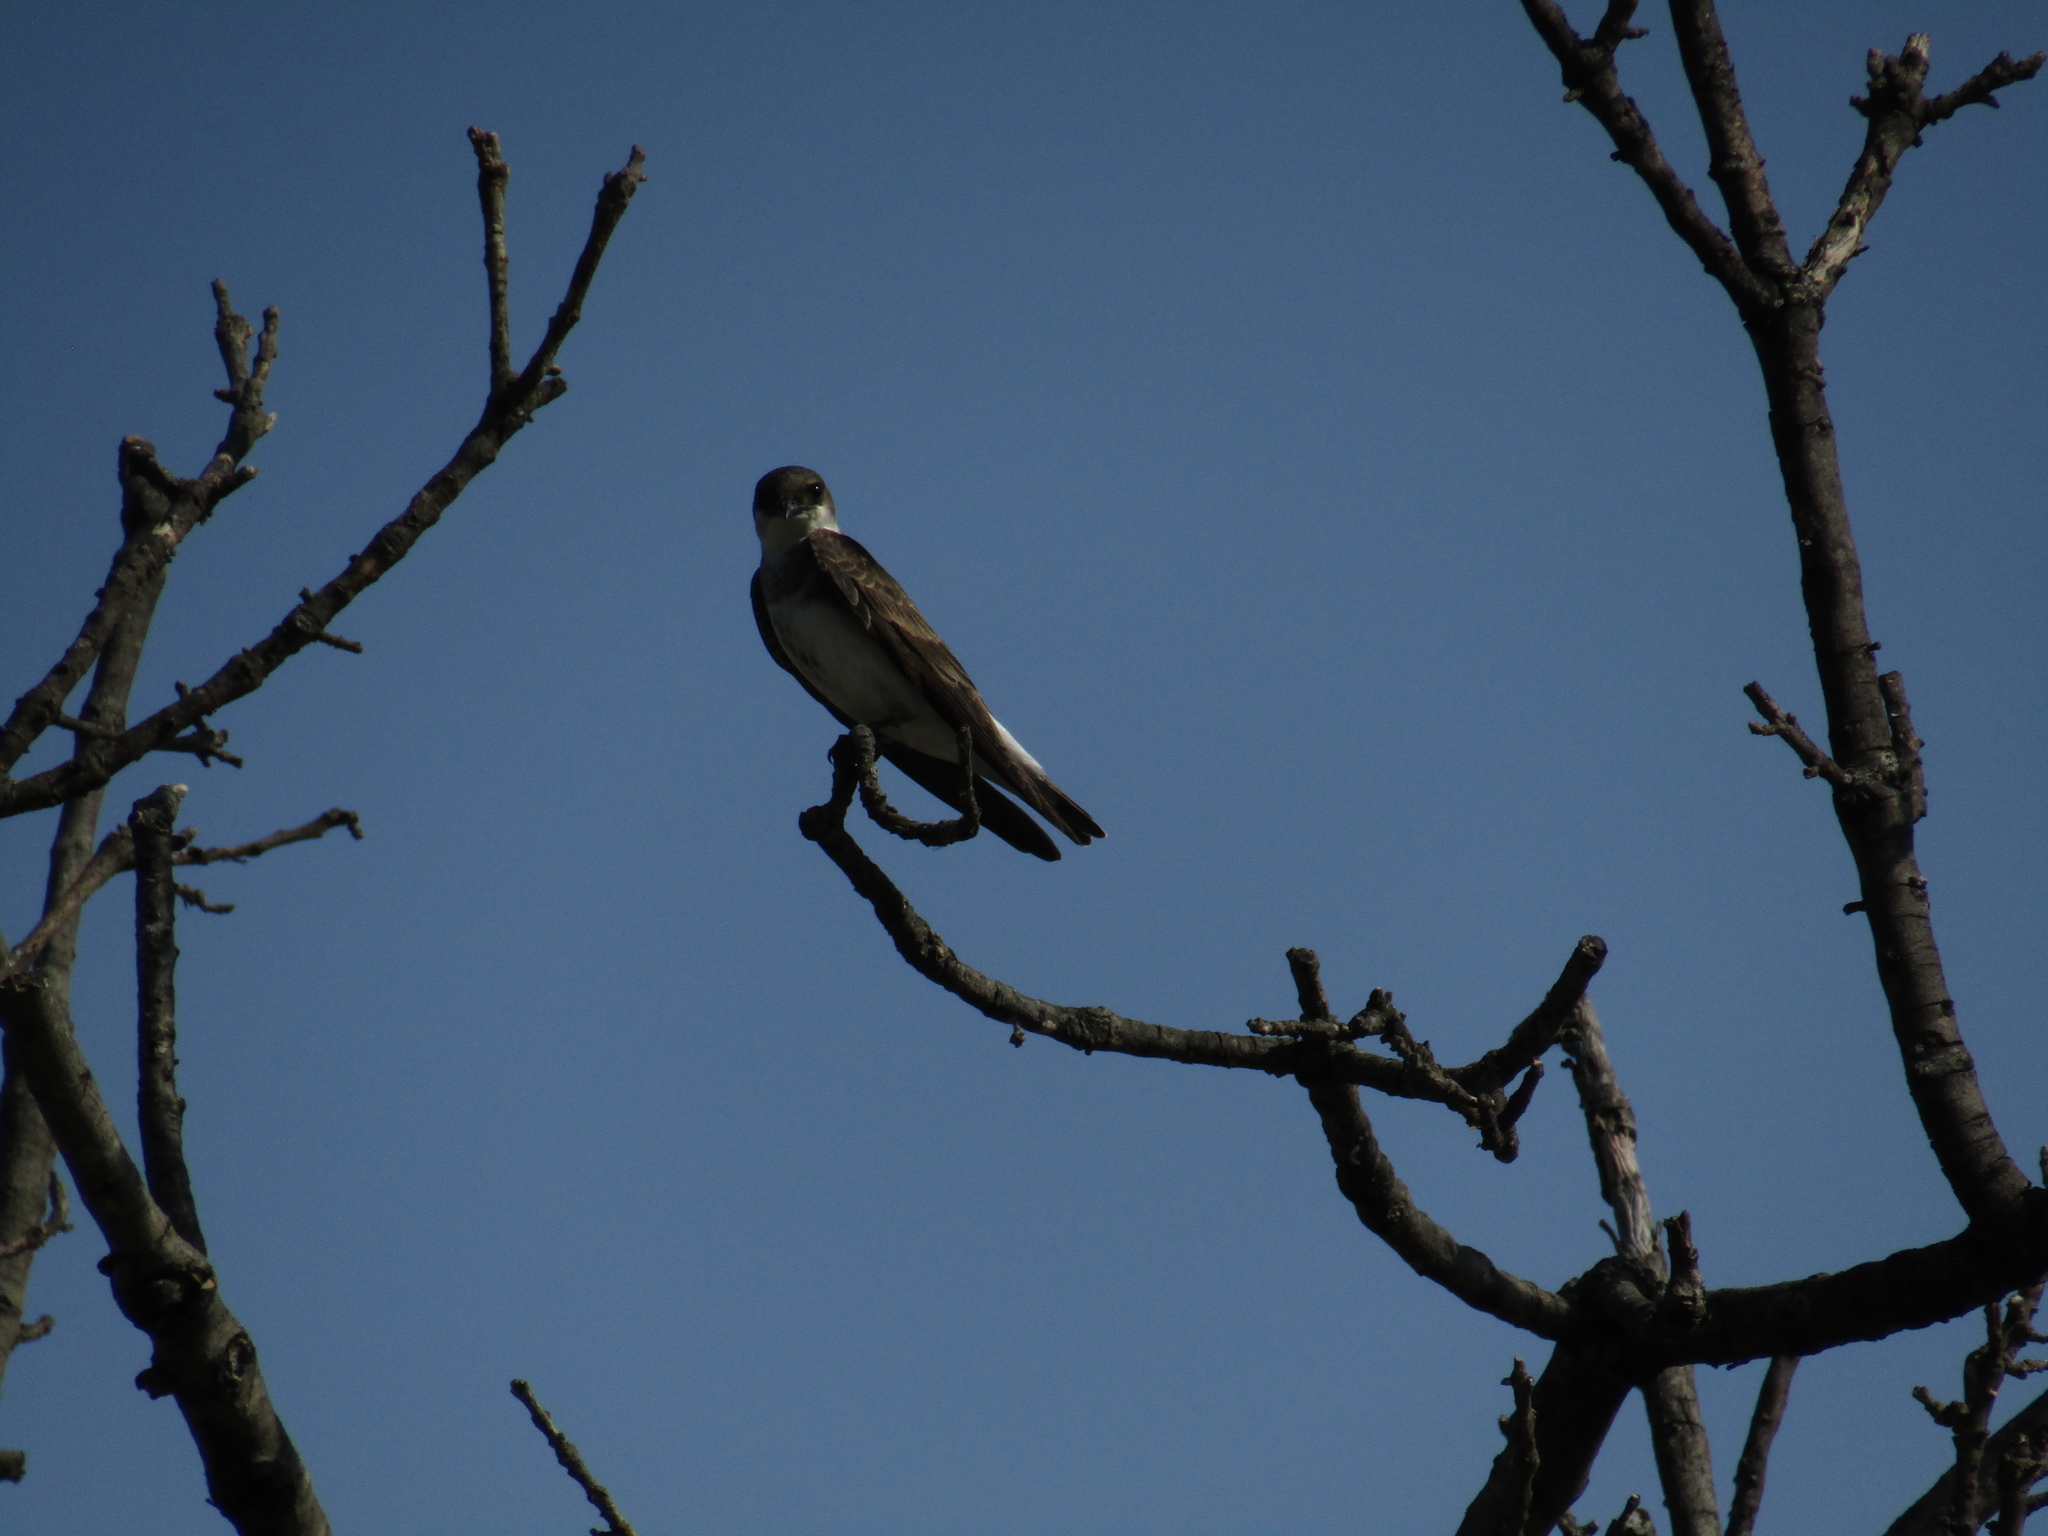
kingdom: Animalia
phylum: Chordata
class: Aves
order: Passeriformes
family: Hirundinidae
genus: Progne
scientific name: Progne tapera
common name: Brown-chested martin
